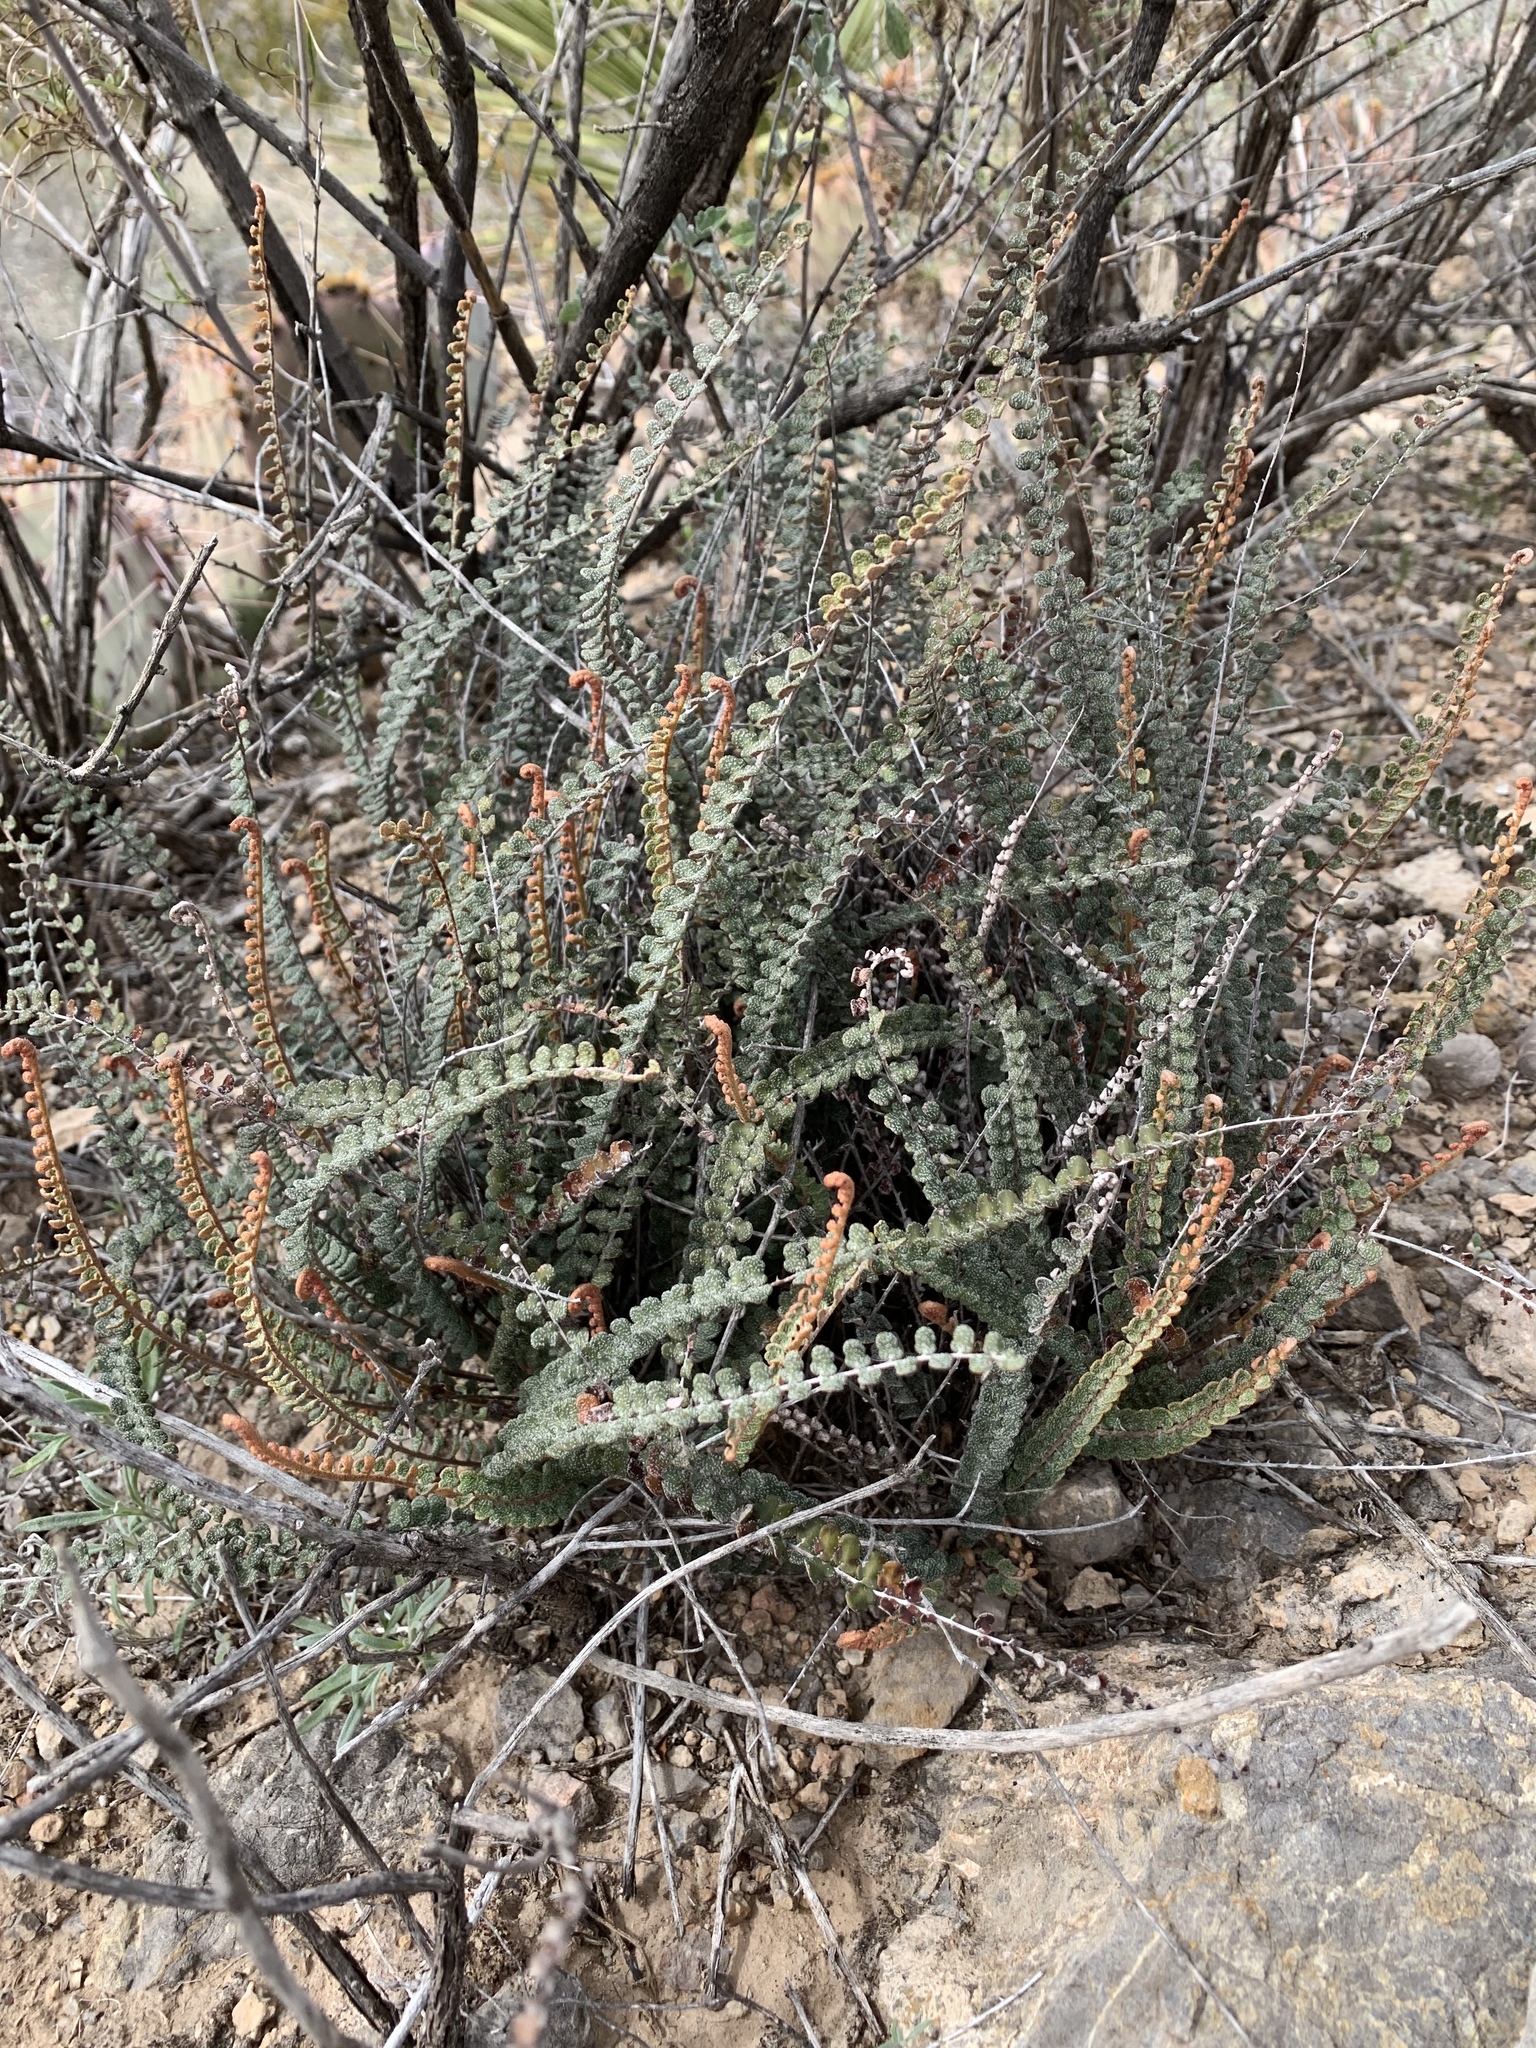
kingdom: Plantae
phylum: Tracheophyta
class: Polypodiopsida
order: Polypodiales
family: Pteridaceae
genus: Astrolepis
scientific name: Astrolepis cochisensis
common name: Scaly cloak fern
